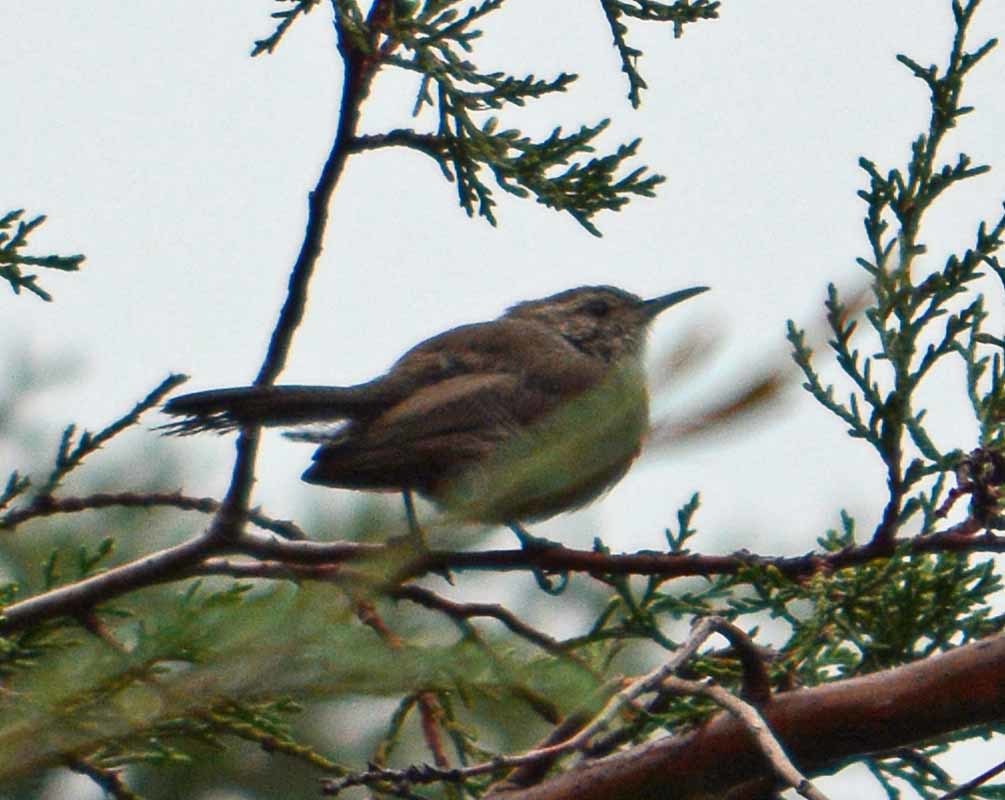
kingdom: Animalia
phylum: Chordata
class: Aves
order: Passeriformes
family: Troglodytidae
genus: Thryomanes
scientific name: Thryomanes bewickii
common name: Bewick's wren
